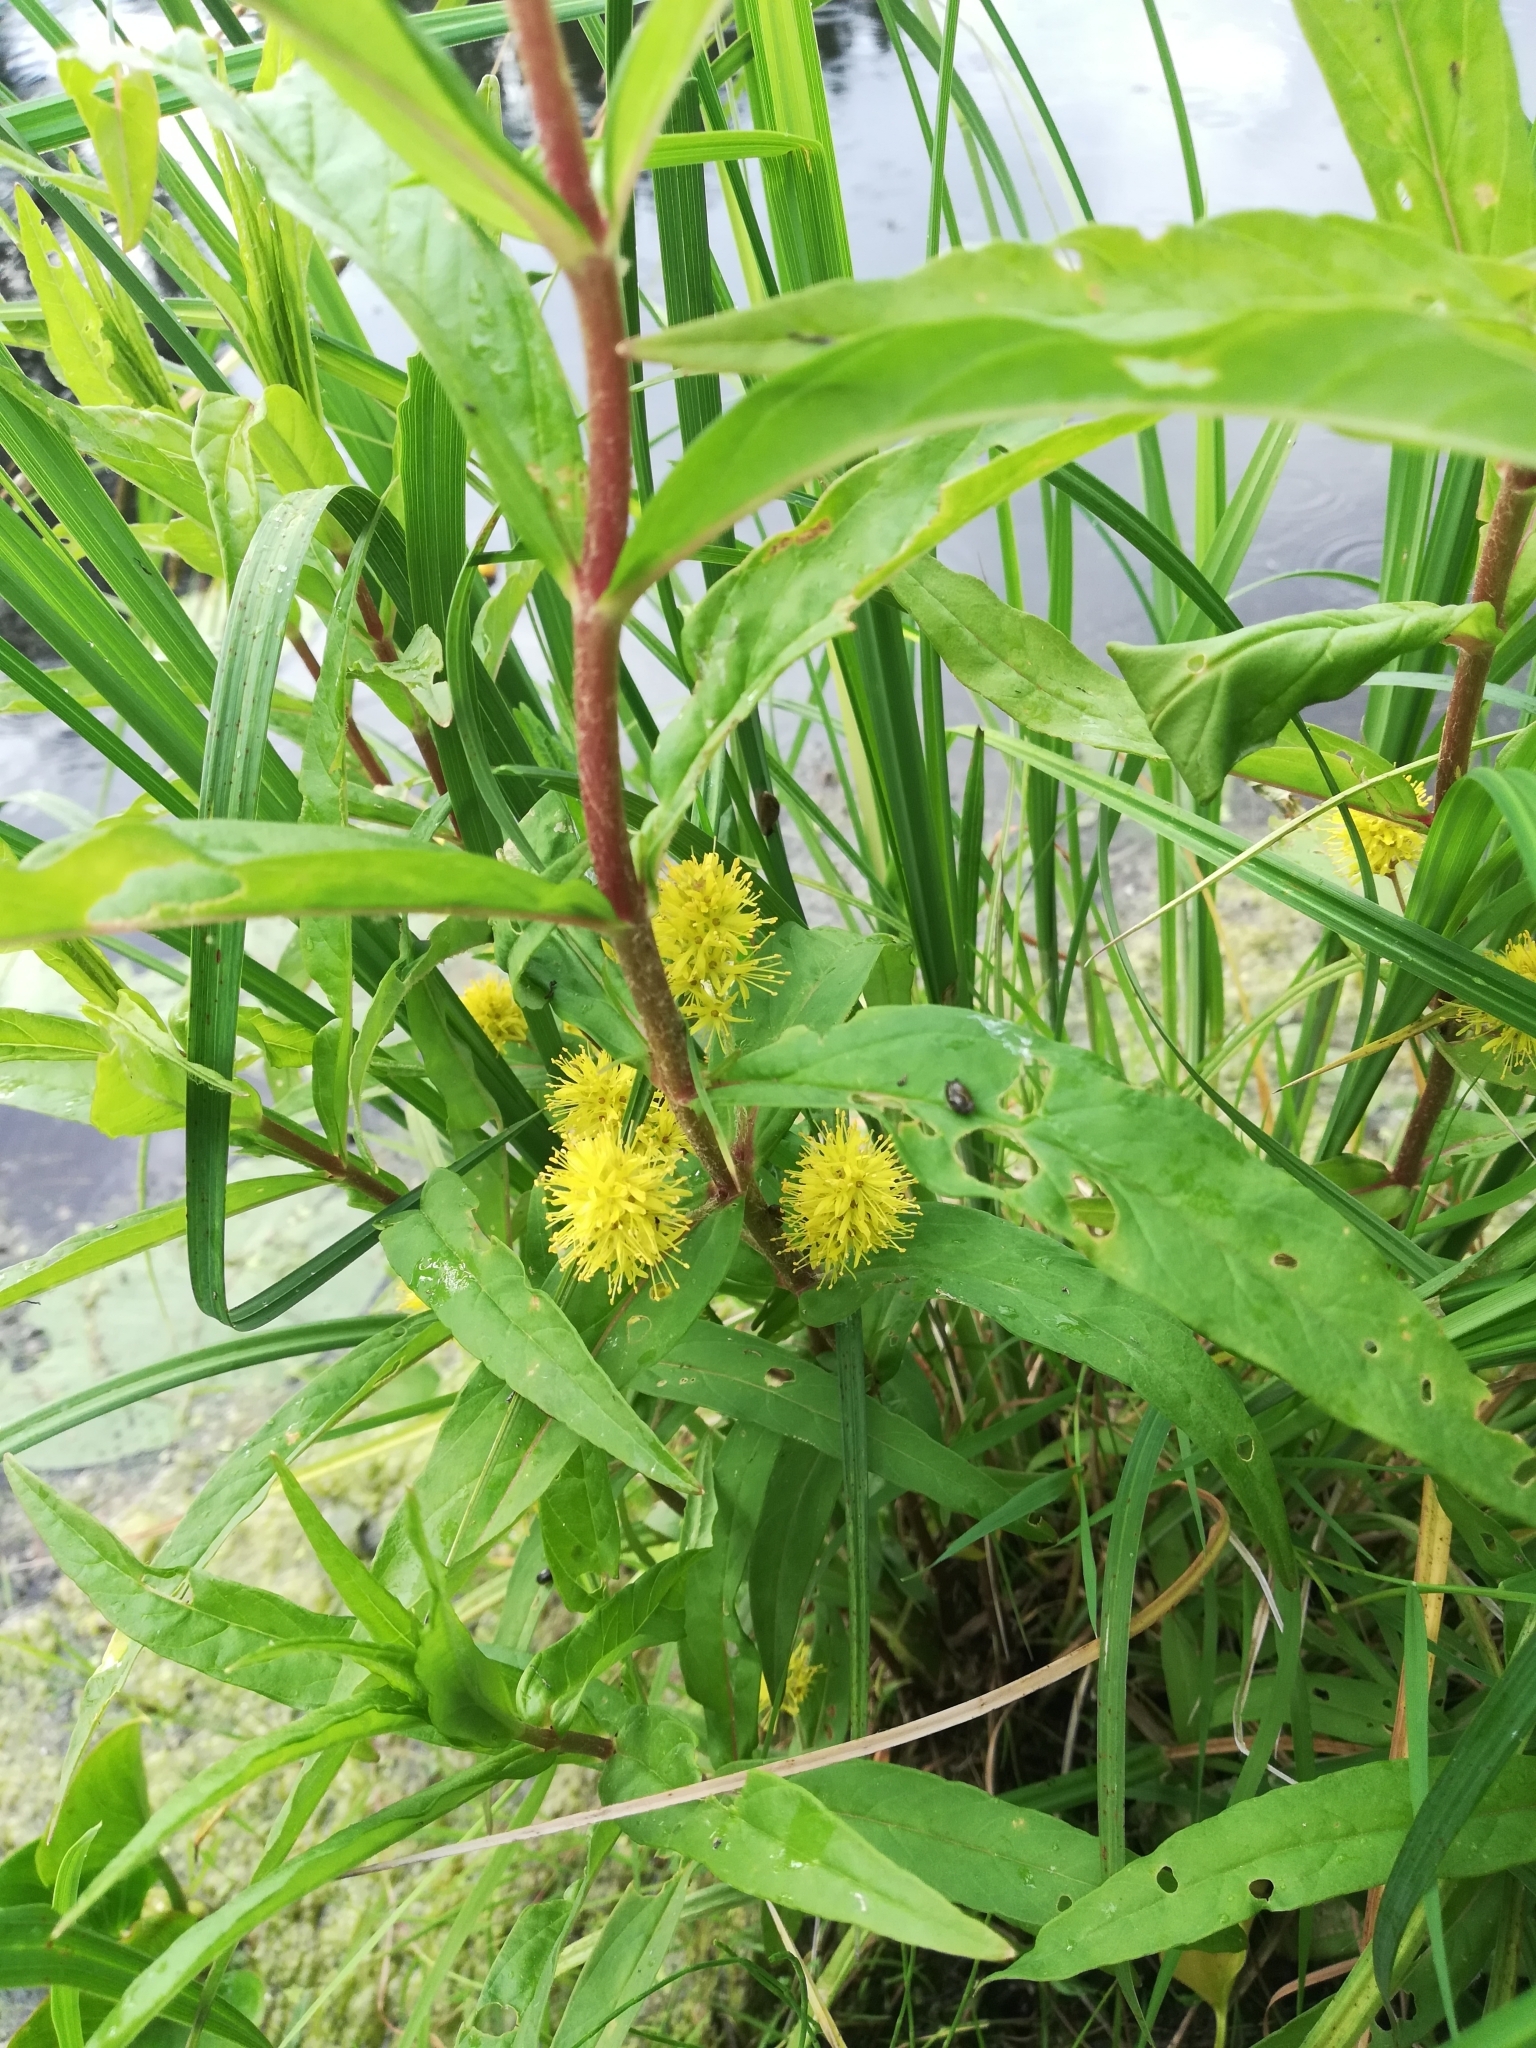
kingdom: Plantae
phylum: Tracheophyta
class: Magnoliopsida
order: Ericales
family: Primulaceae
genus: Lysimachia
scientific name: Lysimachia thyrsiflora
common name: Tufted loosestrife
